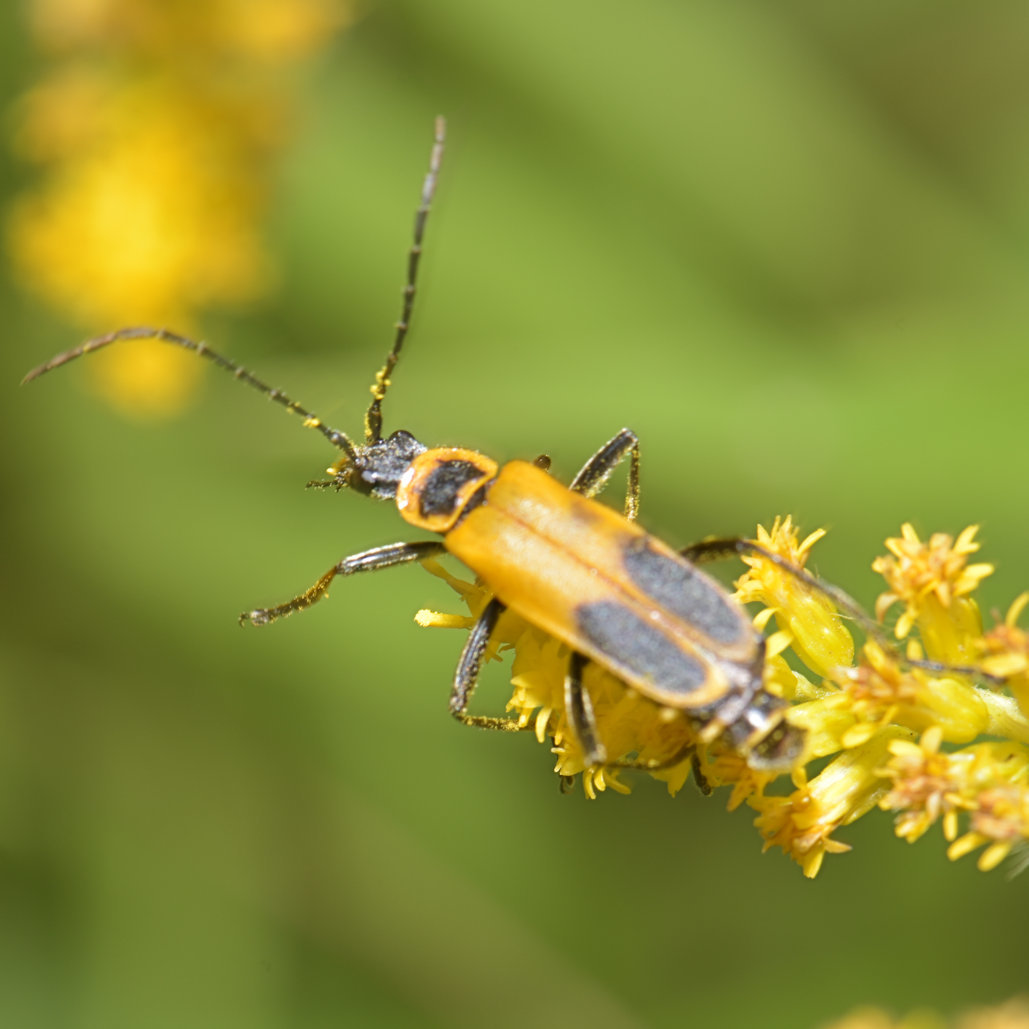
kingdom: Animalia
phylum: Arthropoda
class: Insecta
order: Coleoptera
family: Cantharidae
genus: Chauliognathus
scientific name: Chauliognathus pensylvanicus
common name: Goldenrod soldier beetle
